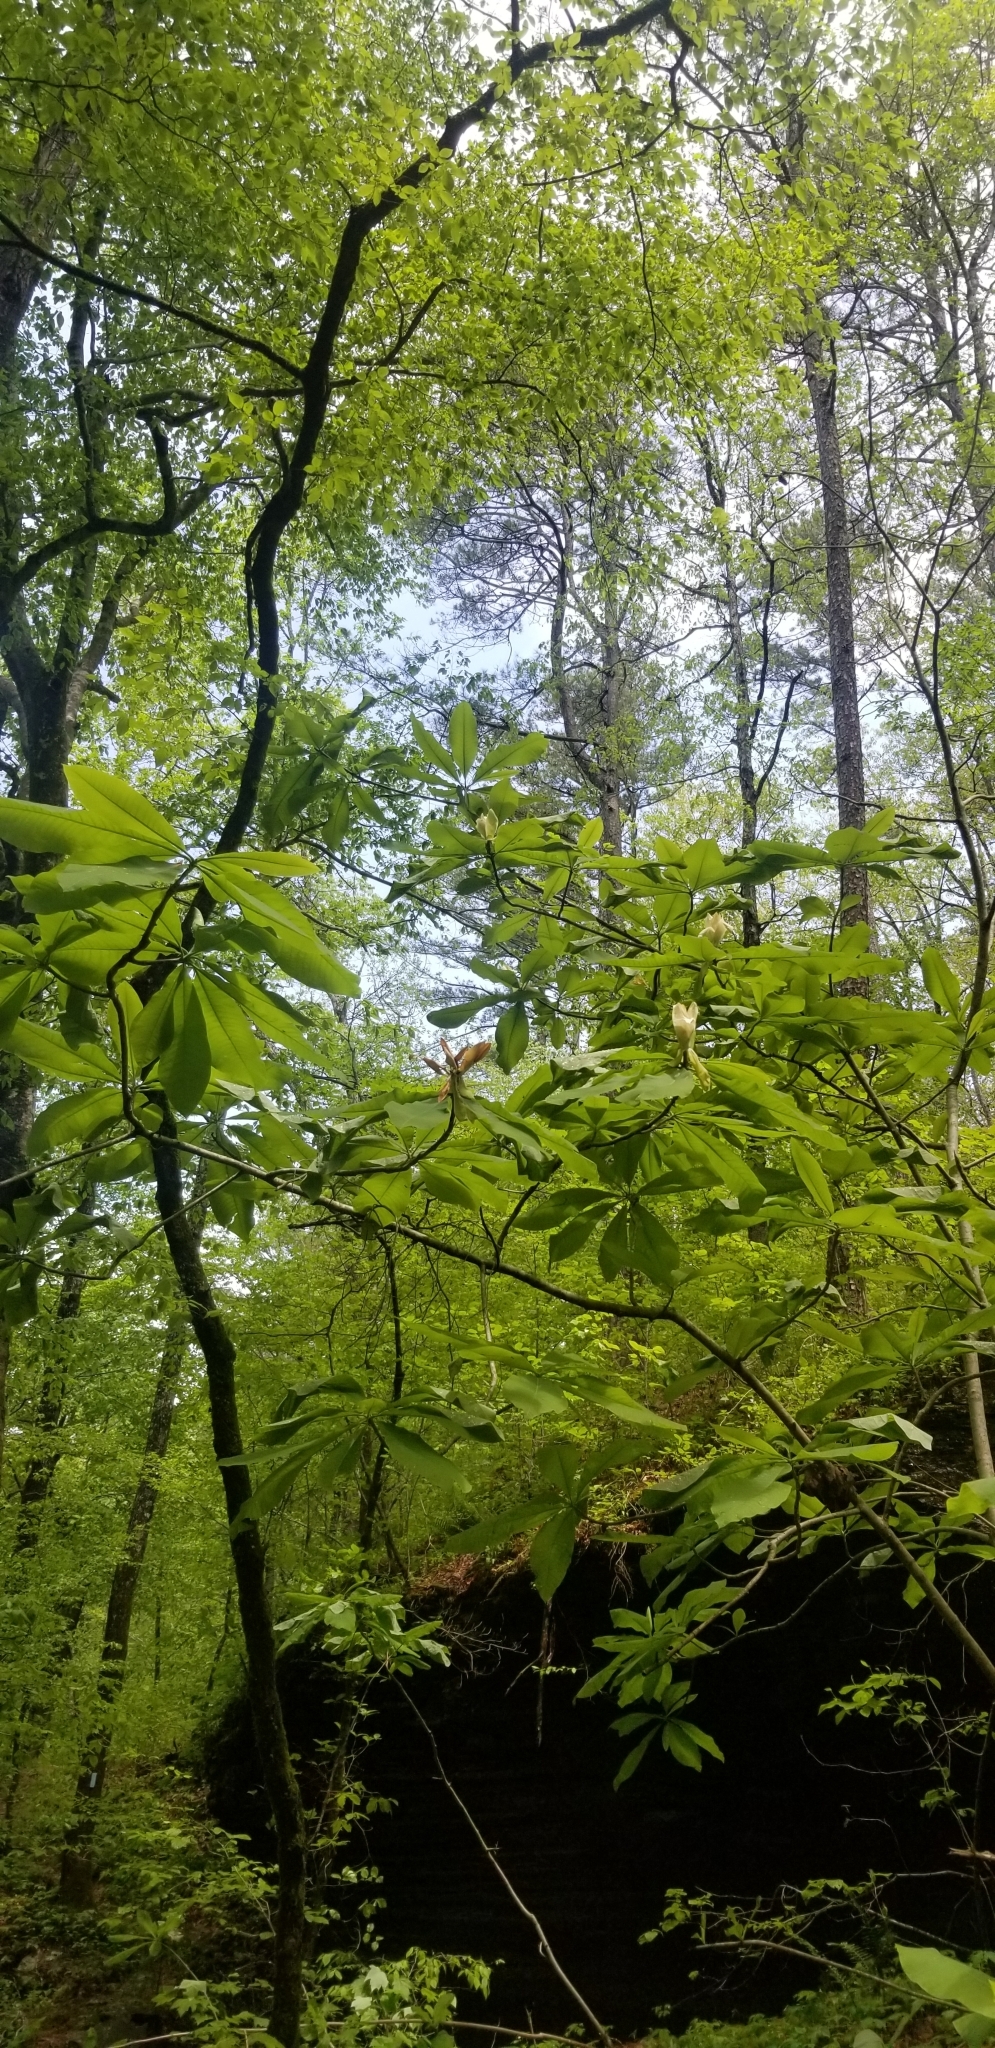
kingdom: Plantae
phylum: Tracheophyta
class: Magnoliopsida
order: Magnoliales
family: Magnoliaceae
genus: Magnolia
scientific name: Magnolia tripetala
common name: Umbrella magnolia
